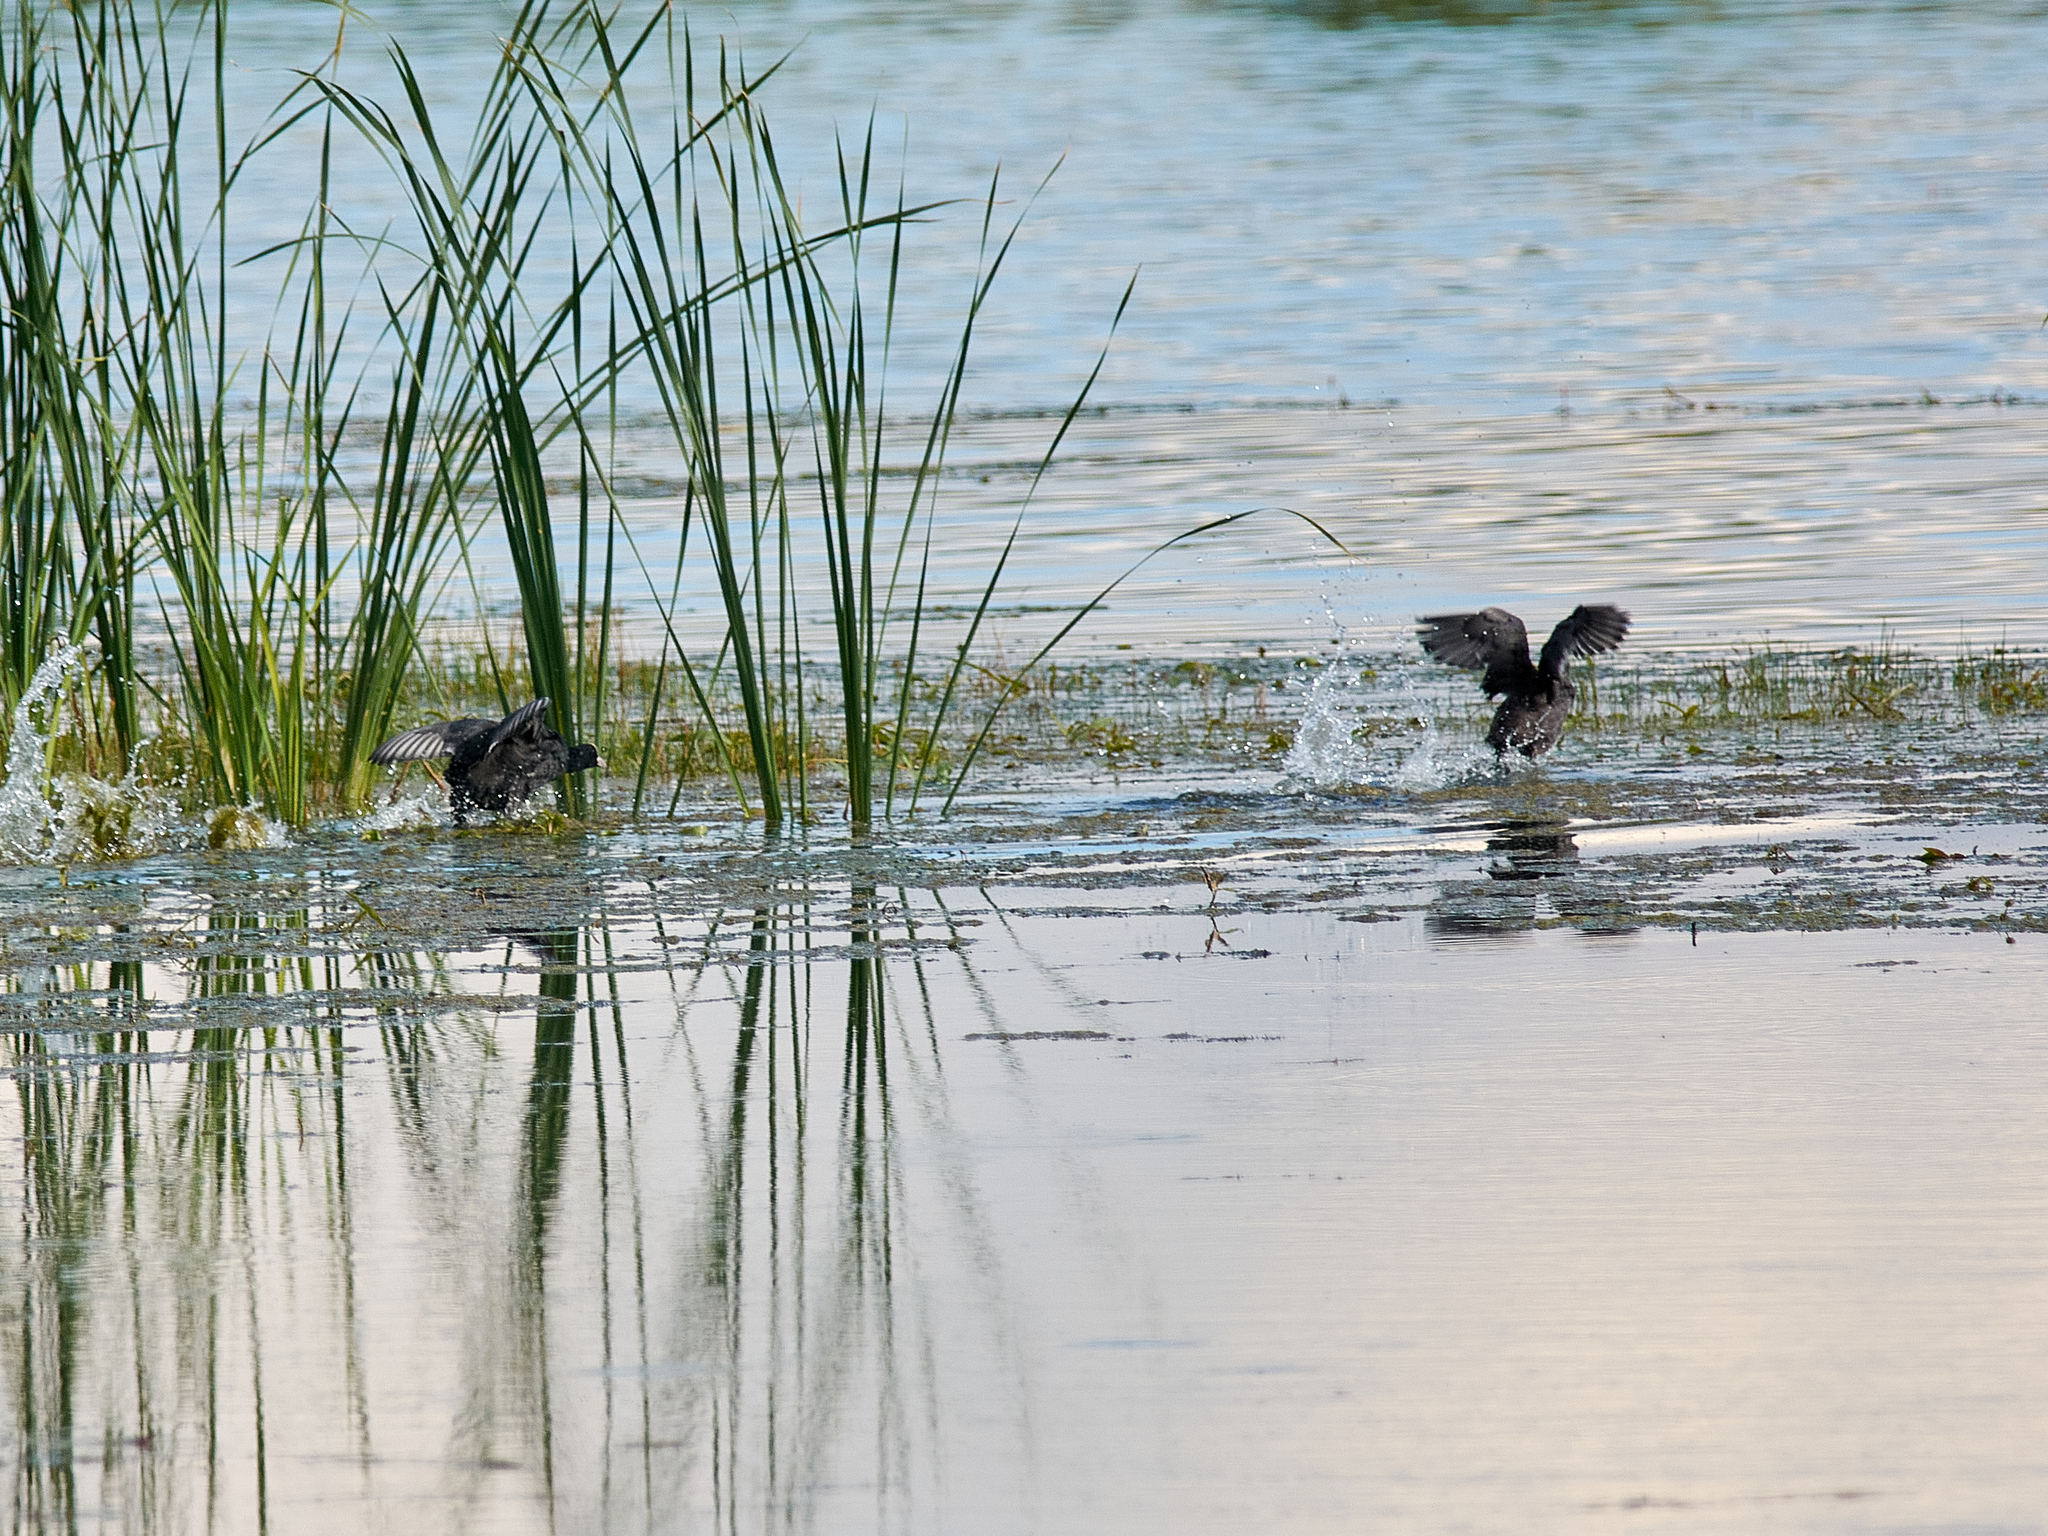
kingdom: Animalia
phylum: Chordata
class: Aves
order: Gruiformes
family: Rallidae
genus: Fulica
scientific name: Fulica atra
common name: Eurasian coot
